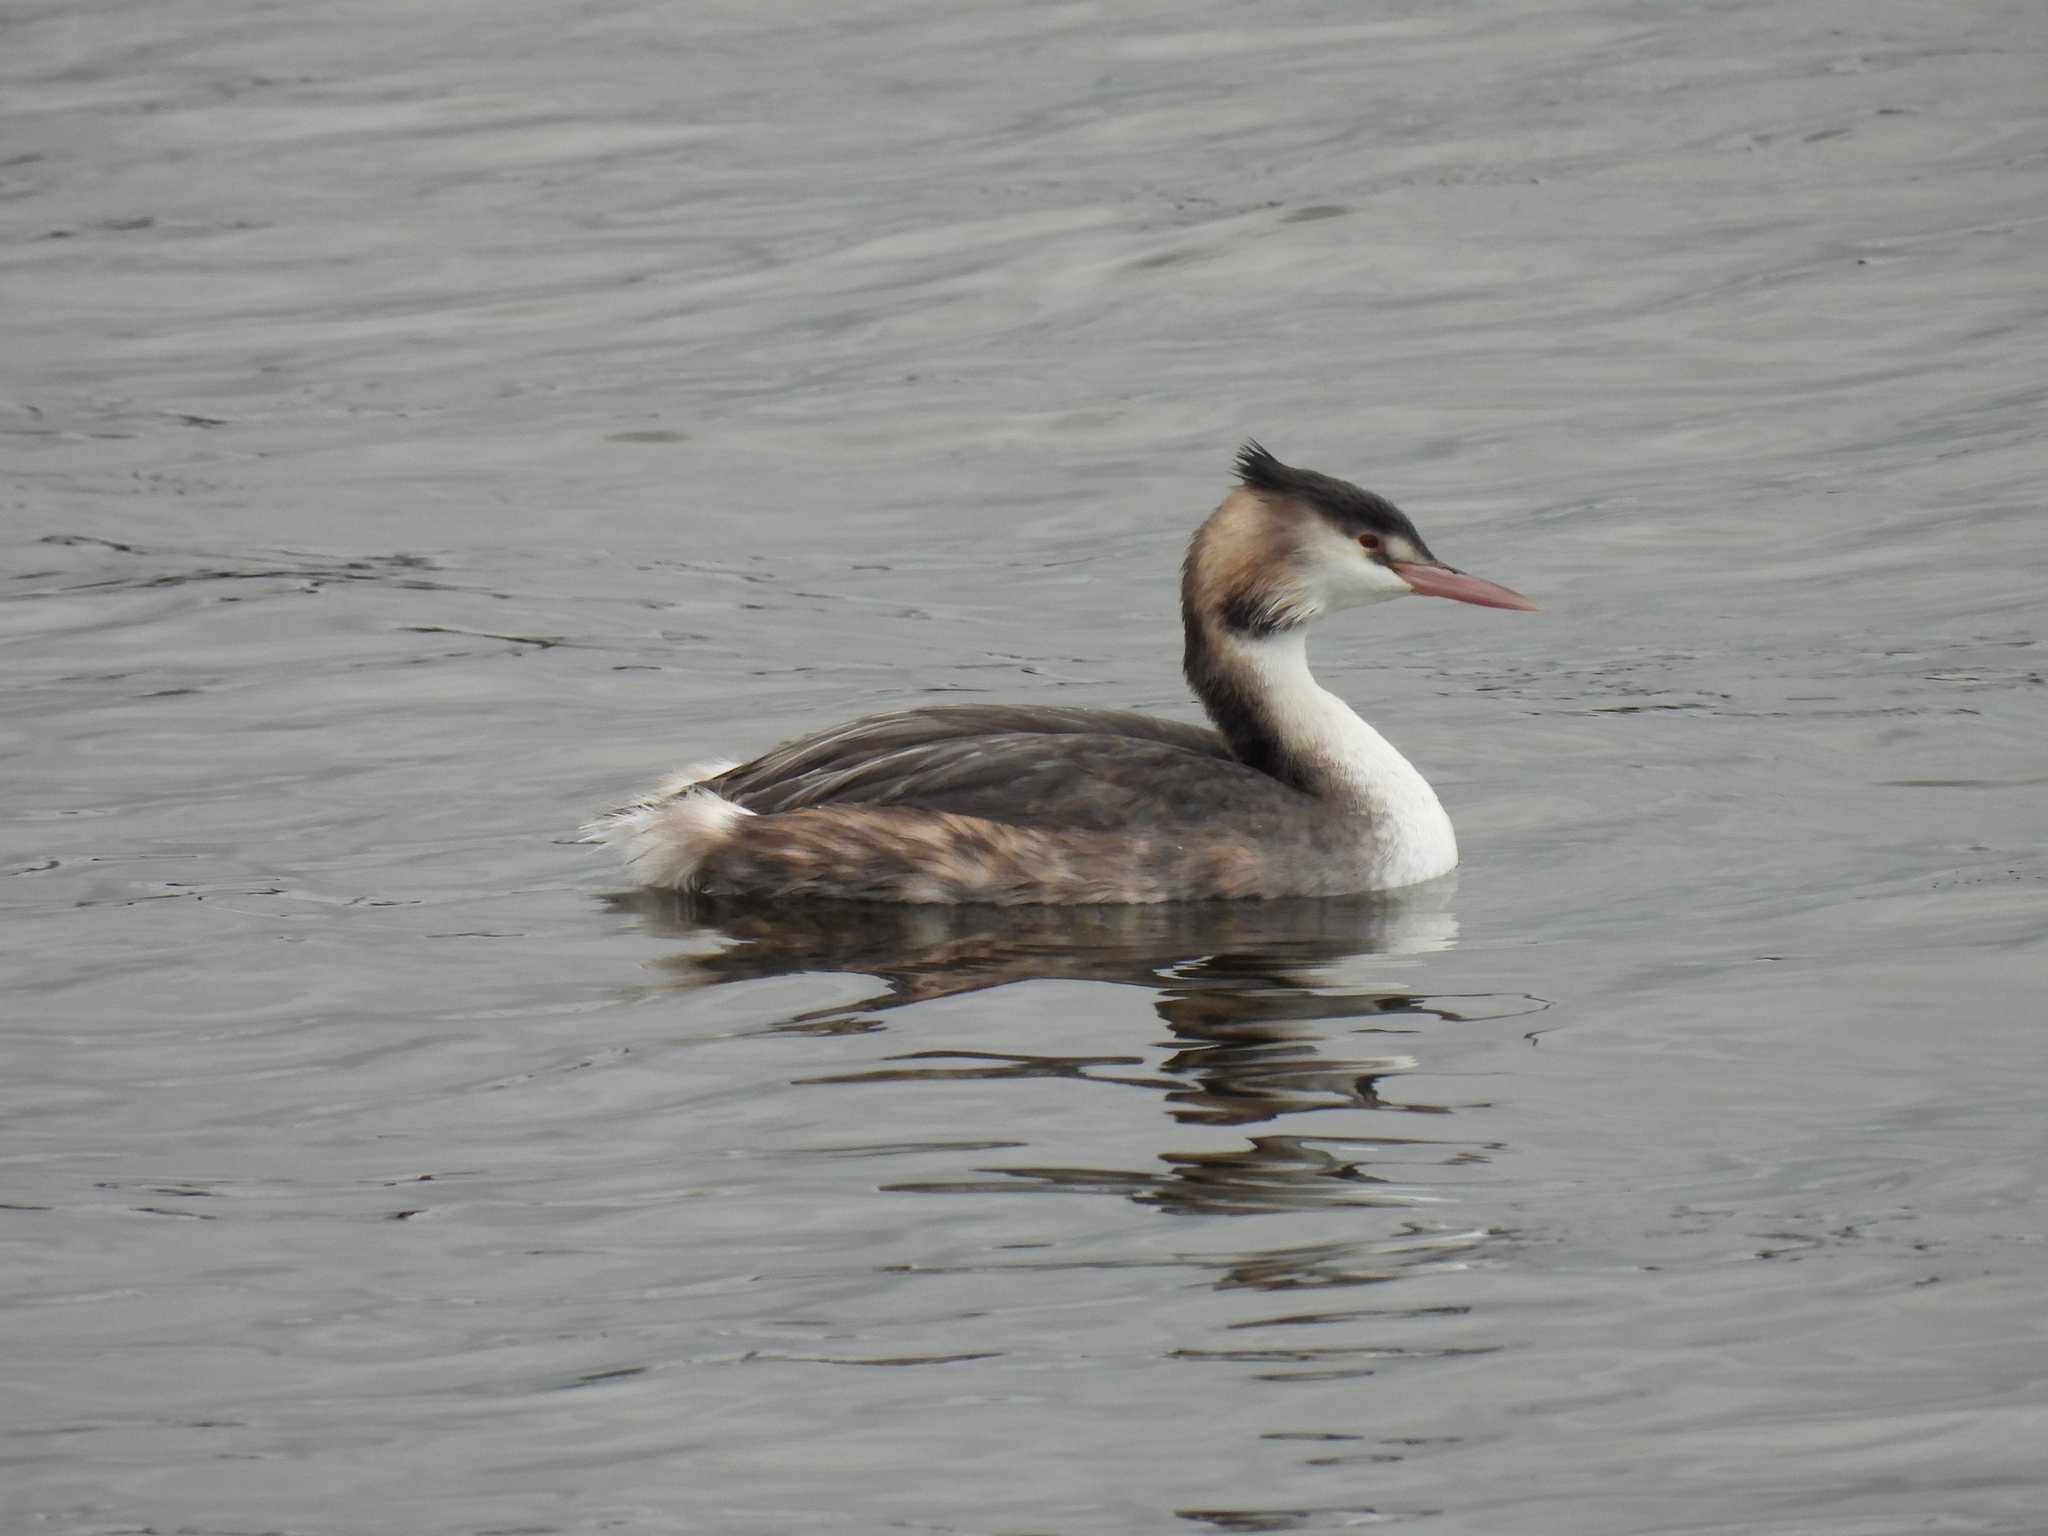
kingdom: Animalia
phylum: Chordata
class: Aves
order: Podicipediformes
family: Podicipedidae
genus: Podiceps
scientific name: Podiceps cristatus
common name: Great crested grebe
